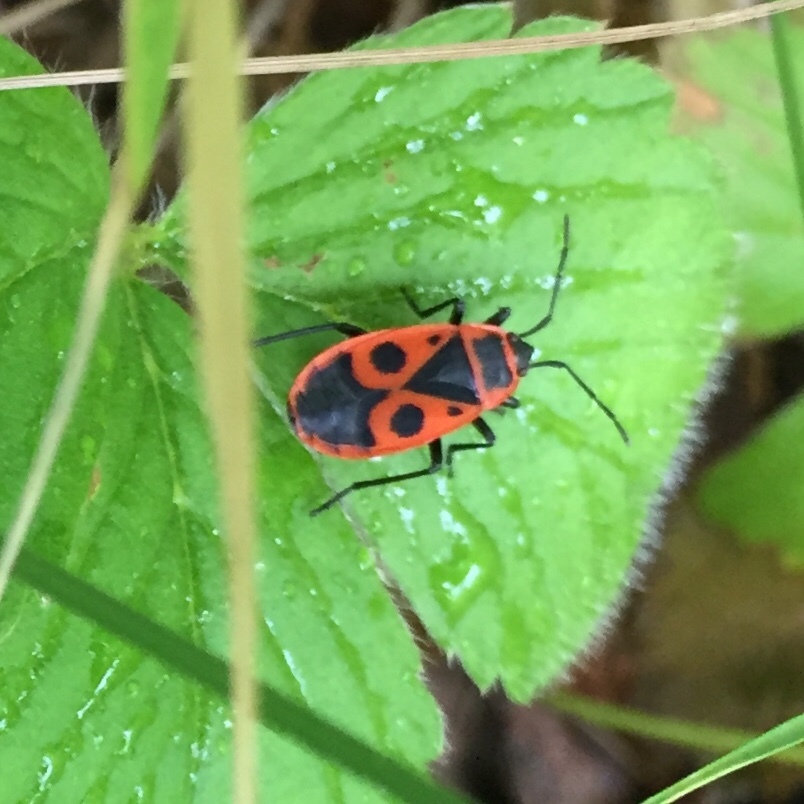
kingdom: Animalia
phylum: Arthropoda
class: Insecta
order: Hemiptera
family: Pyrrhocoridae
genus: Pyrrhocoris
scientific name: Pyrrhocoris apterus
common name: Firebug
